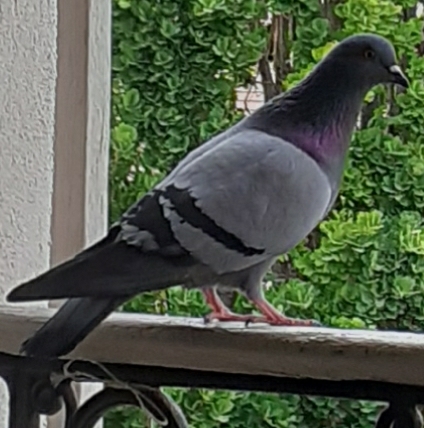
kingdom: Animalia
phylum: Chordata
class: Aves
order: Columbiformes
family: Columbidae
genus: Columba
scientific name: Columba livia
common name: Rock pigeon
